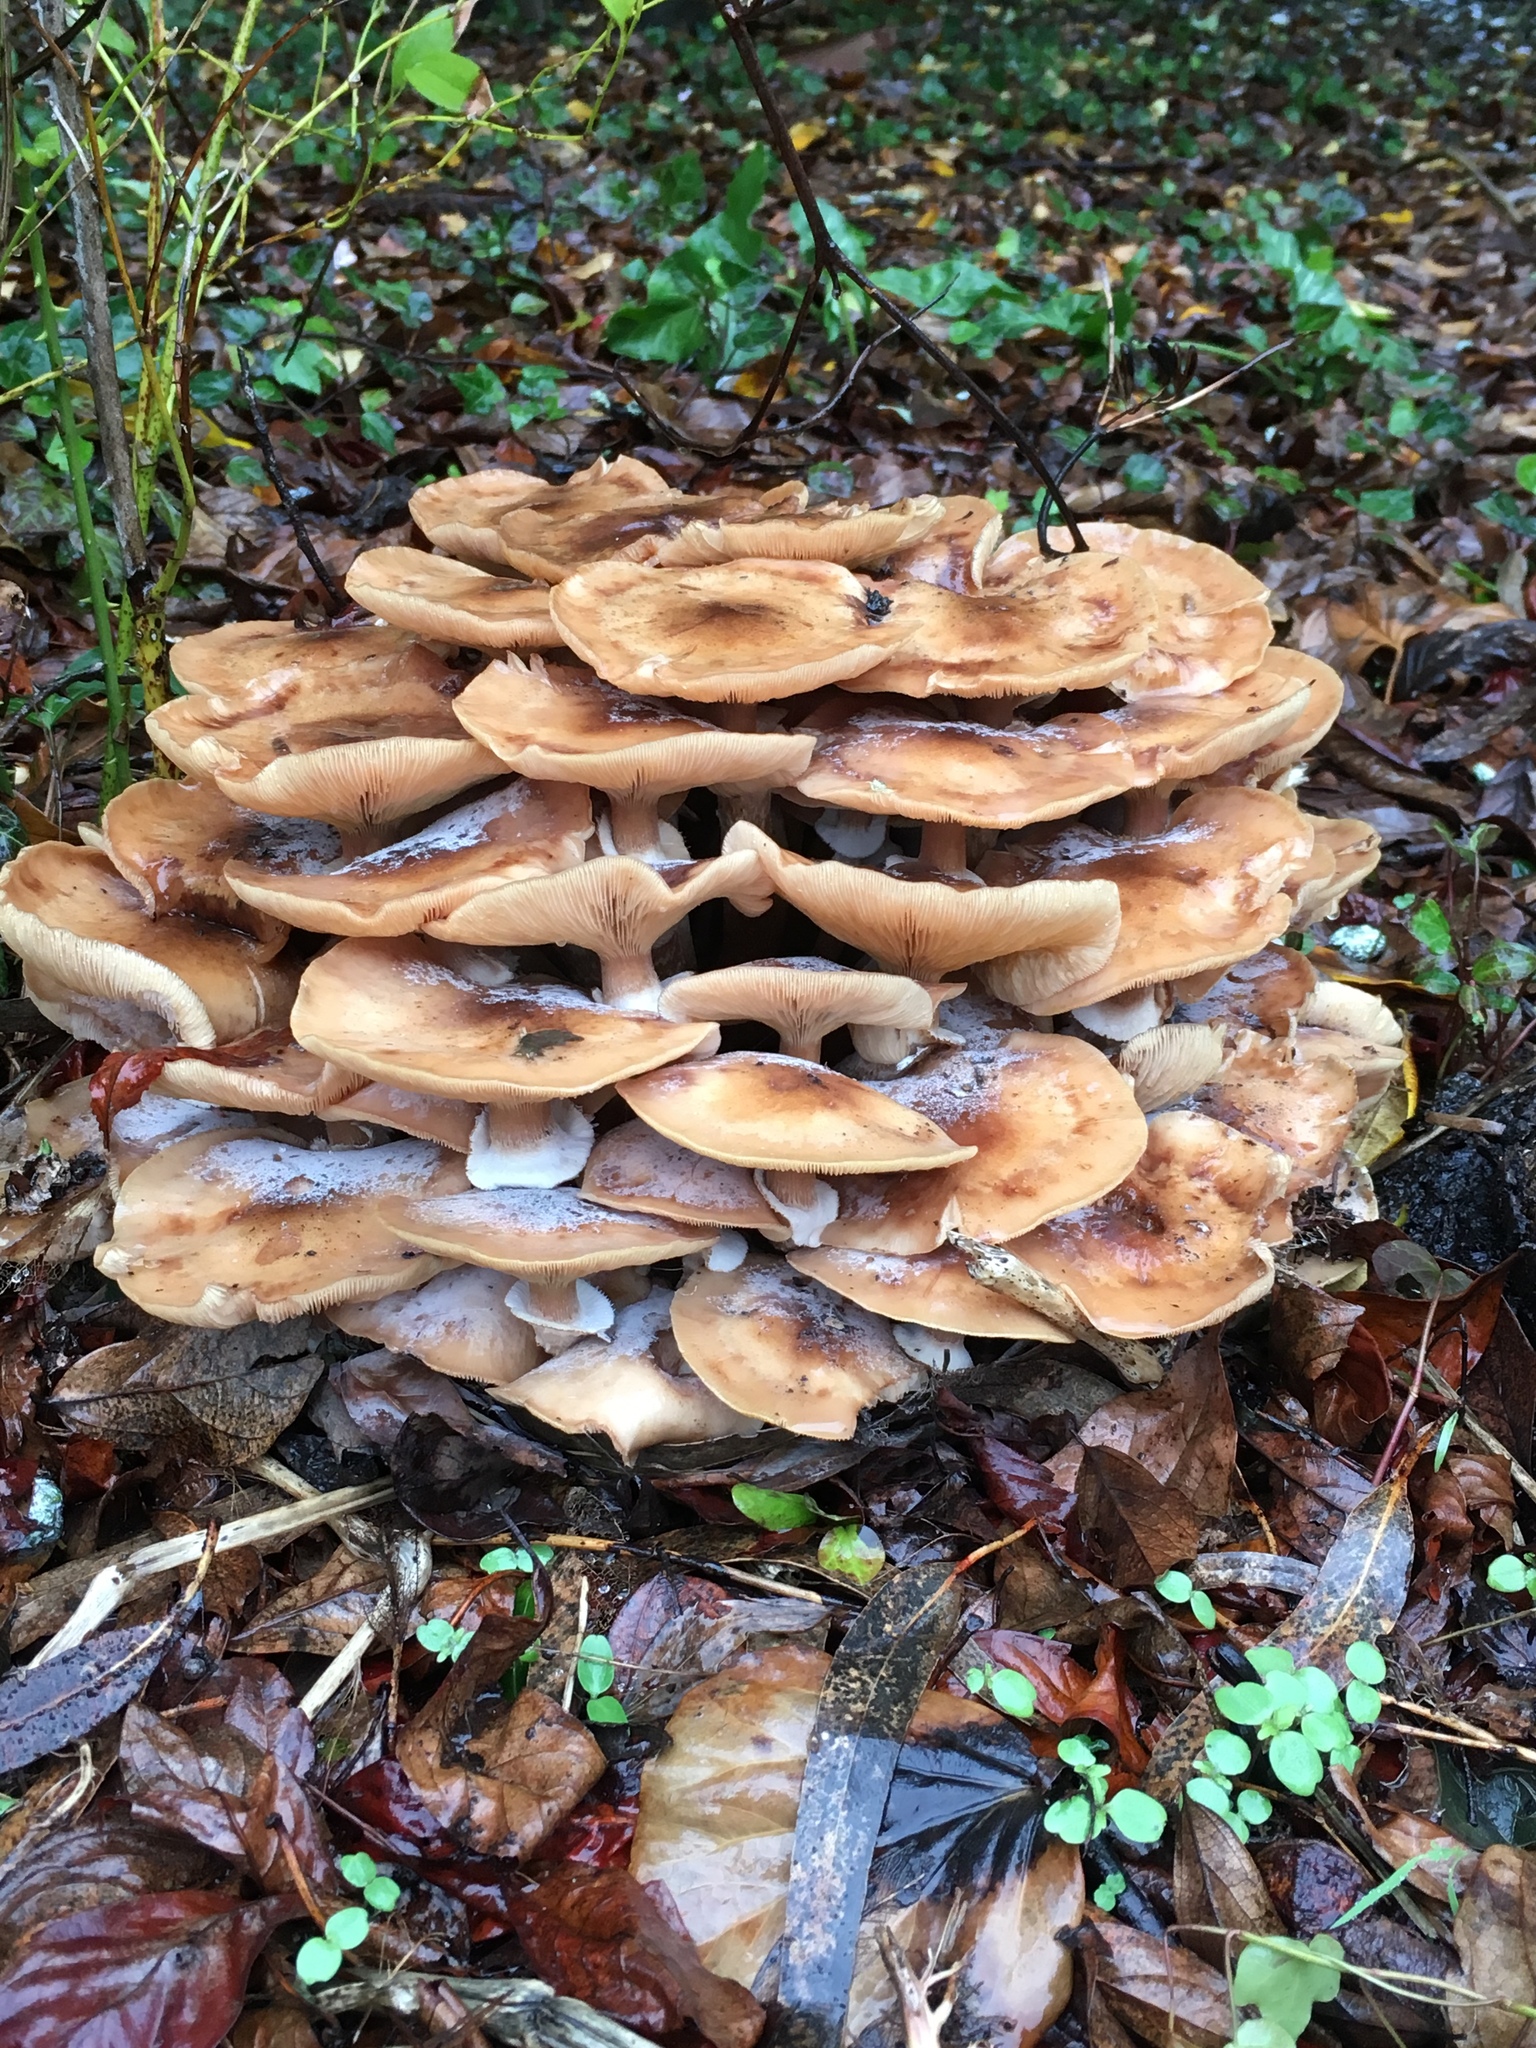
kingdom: Fungi
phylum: Basidiomycota
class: Agaricomycetes
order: Agaricales
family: Physalacriaceae
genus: Armillaria
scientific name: Armillaria mellea
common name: Honey fungus
